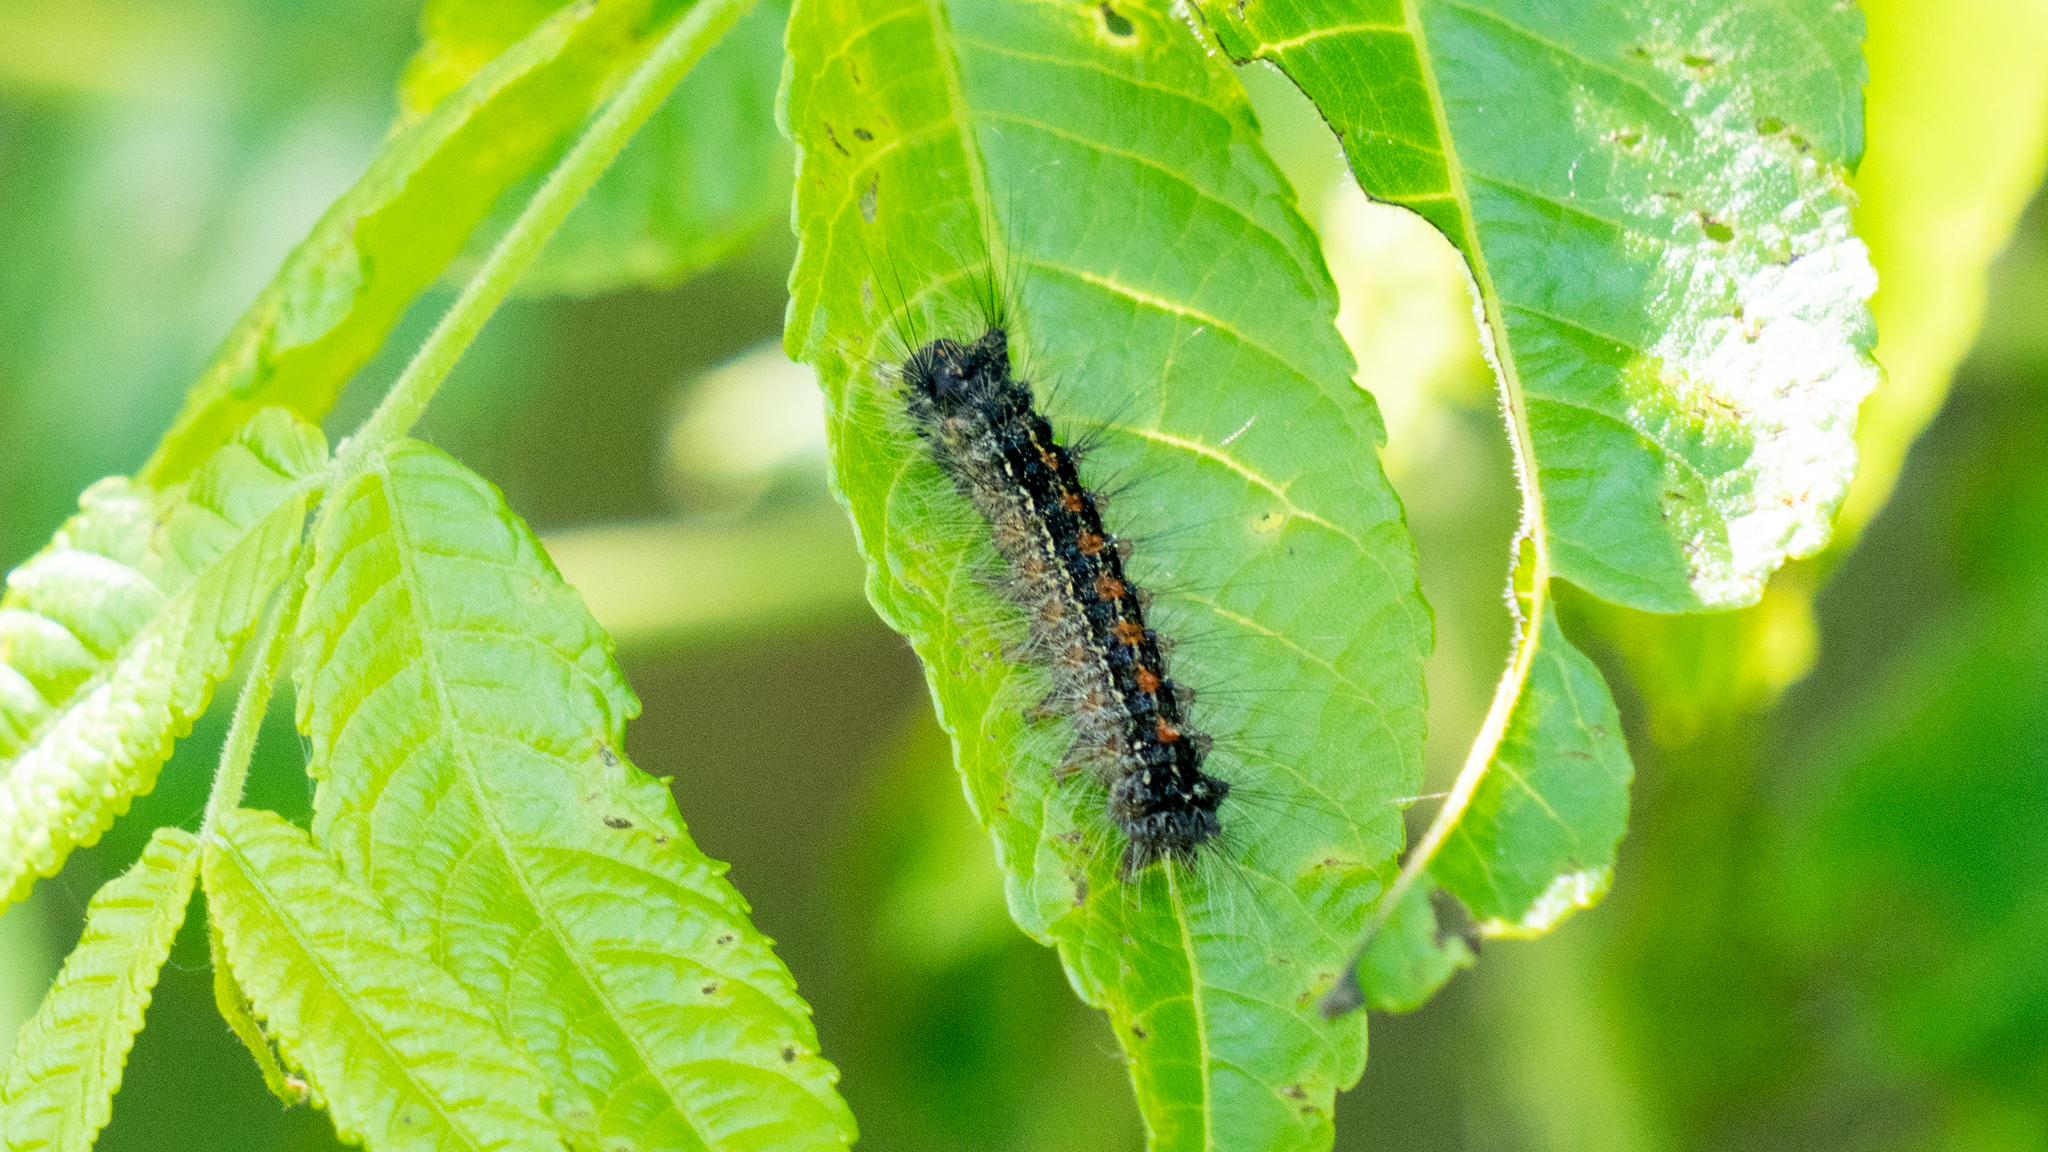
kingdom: Animalia
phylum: Arthropoda
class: Insecta
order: Lepidoptera
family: Erebidae
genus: Lymantria
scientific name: Lymantria dispar
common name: Gypsy moth
